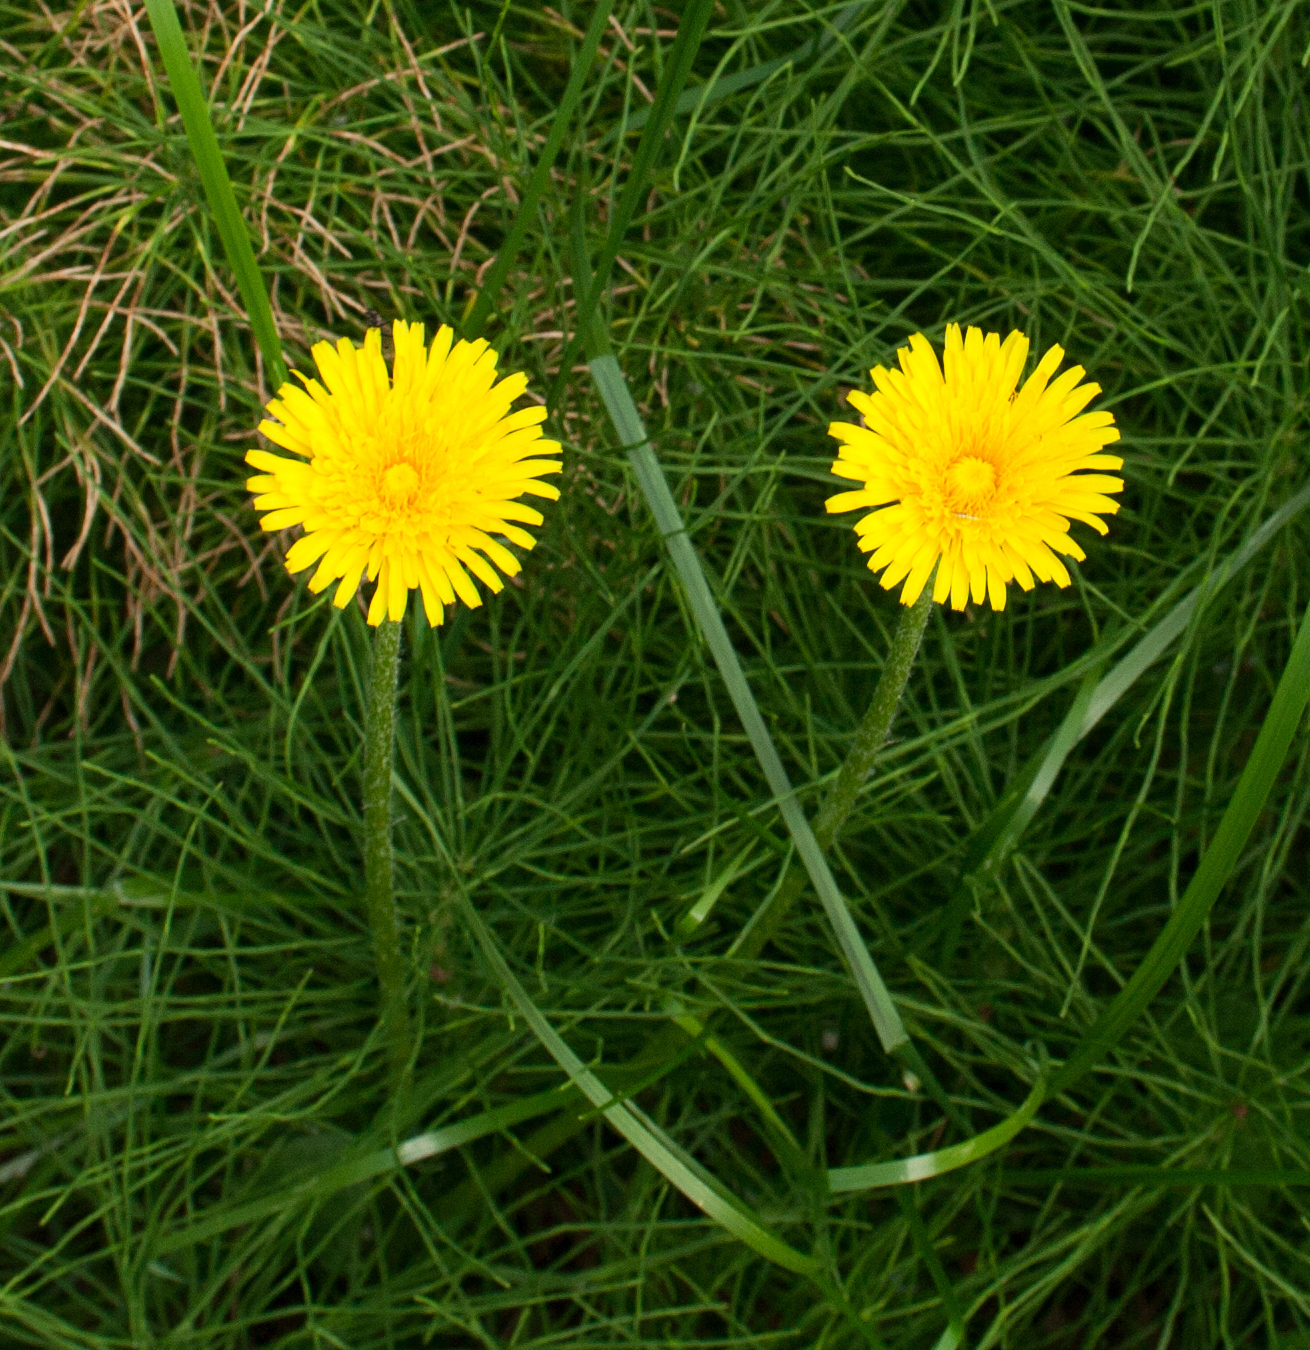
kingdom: Plantae
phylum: Tracheophyta
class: Magnoliopsida
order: Asterales
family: Asteraceae
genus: Taraxacum
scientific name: Taraxacum officinale
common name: Common dandelion
